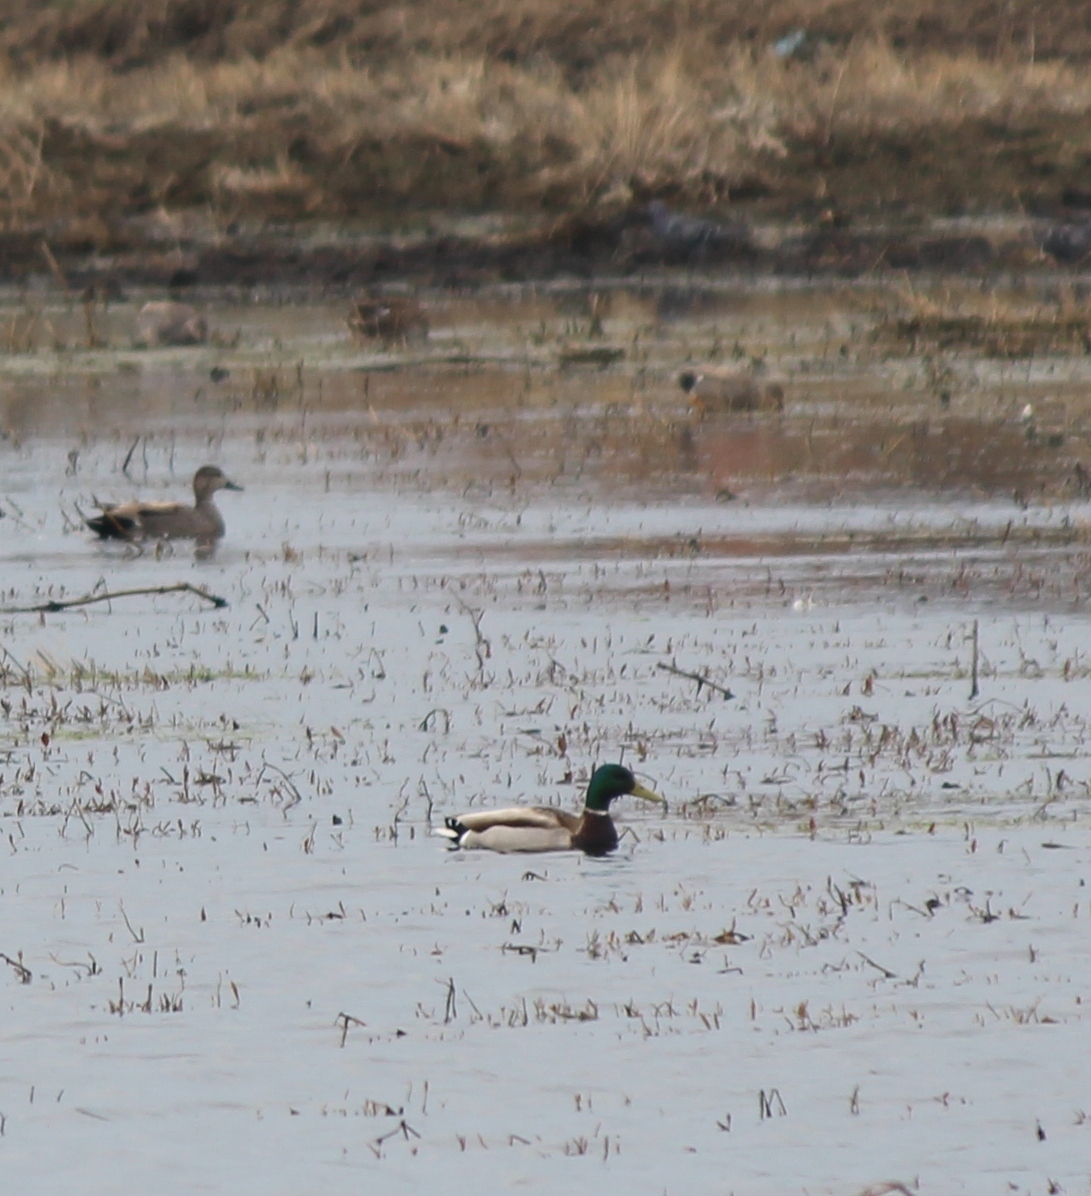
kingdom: Animalia
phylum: Chordata
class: Aves
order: Anseriformes
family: Anatidae
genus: Anas
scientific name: Anas platyrhynchos
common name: Mallard
